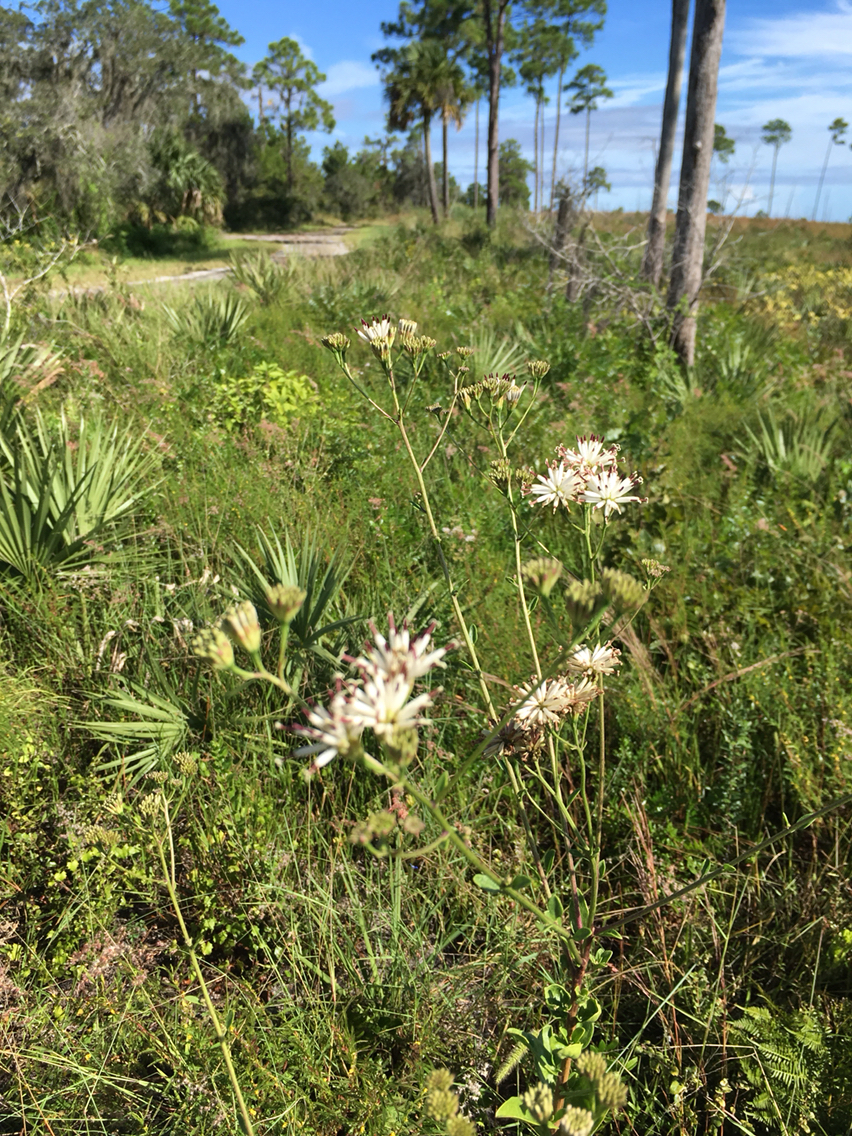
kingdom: Plantae
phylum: Tracheophyta
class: Magnoliopsida
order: Asterales
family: Asteraceae
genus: Palafoxia
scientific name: Palafoxia feayi
